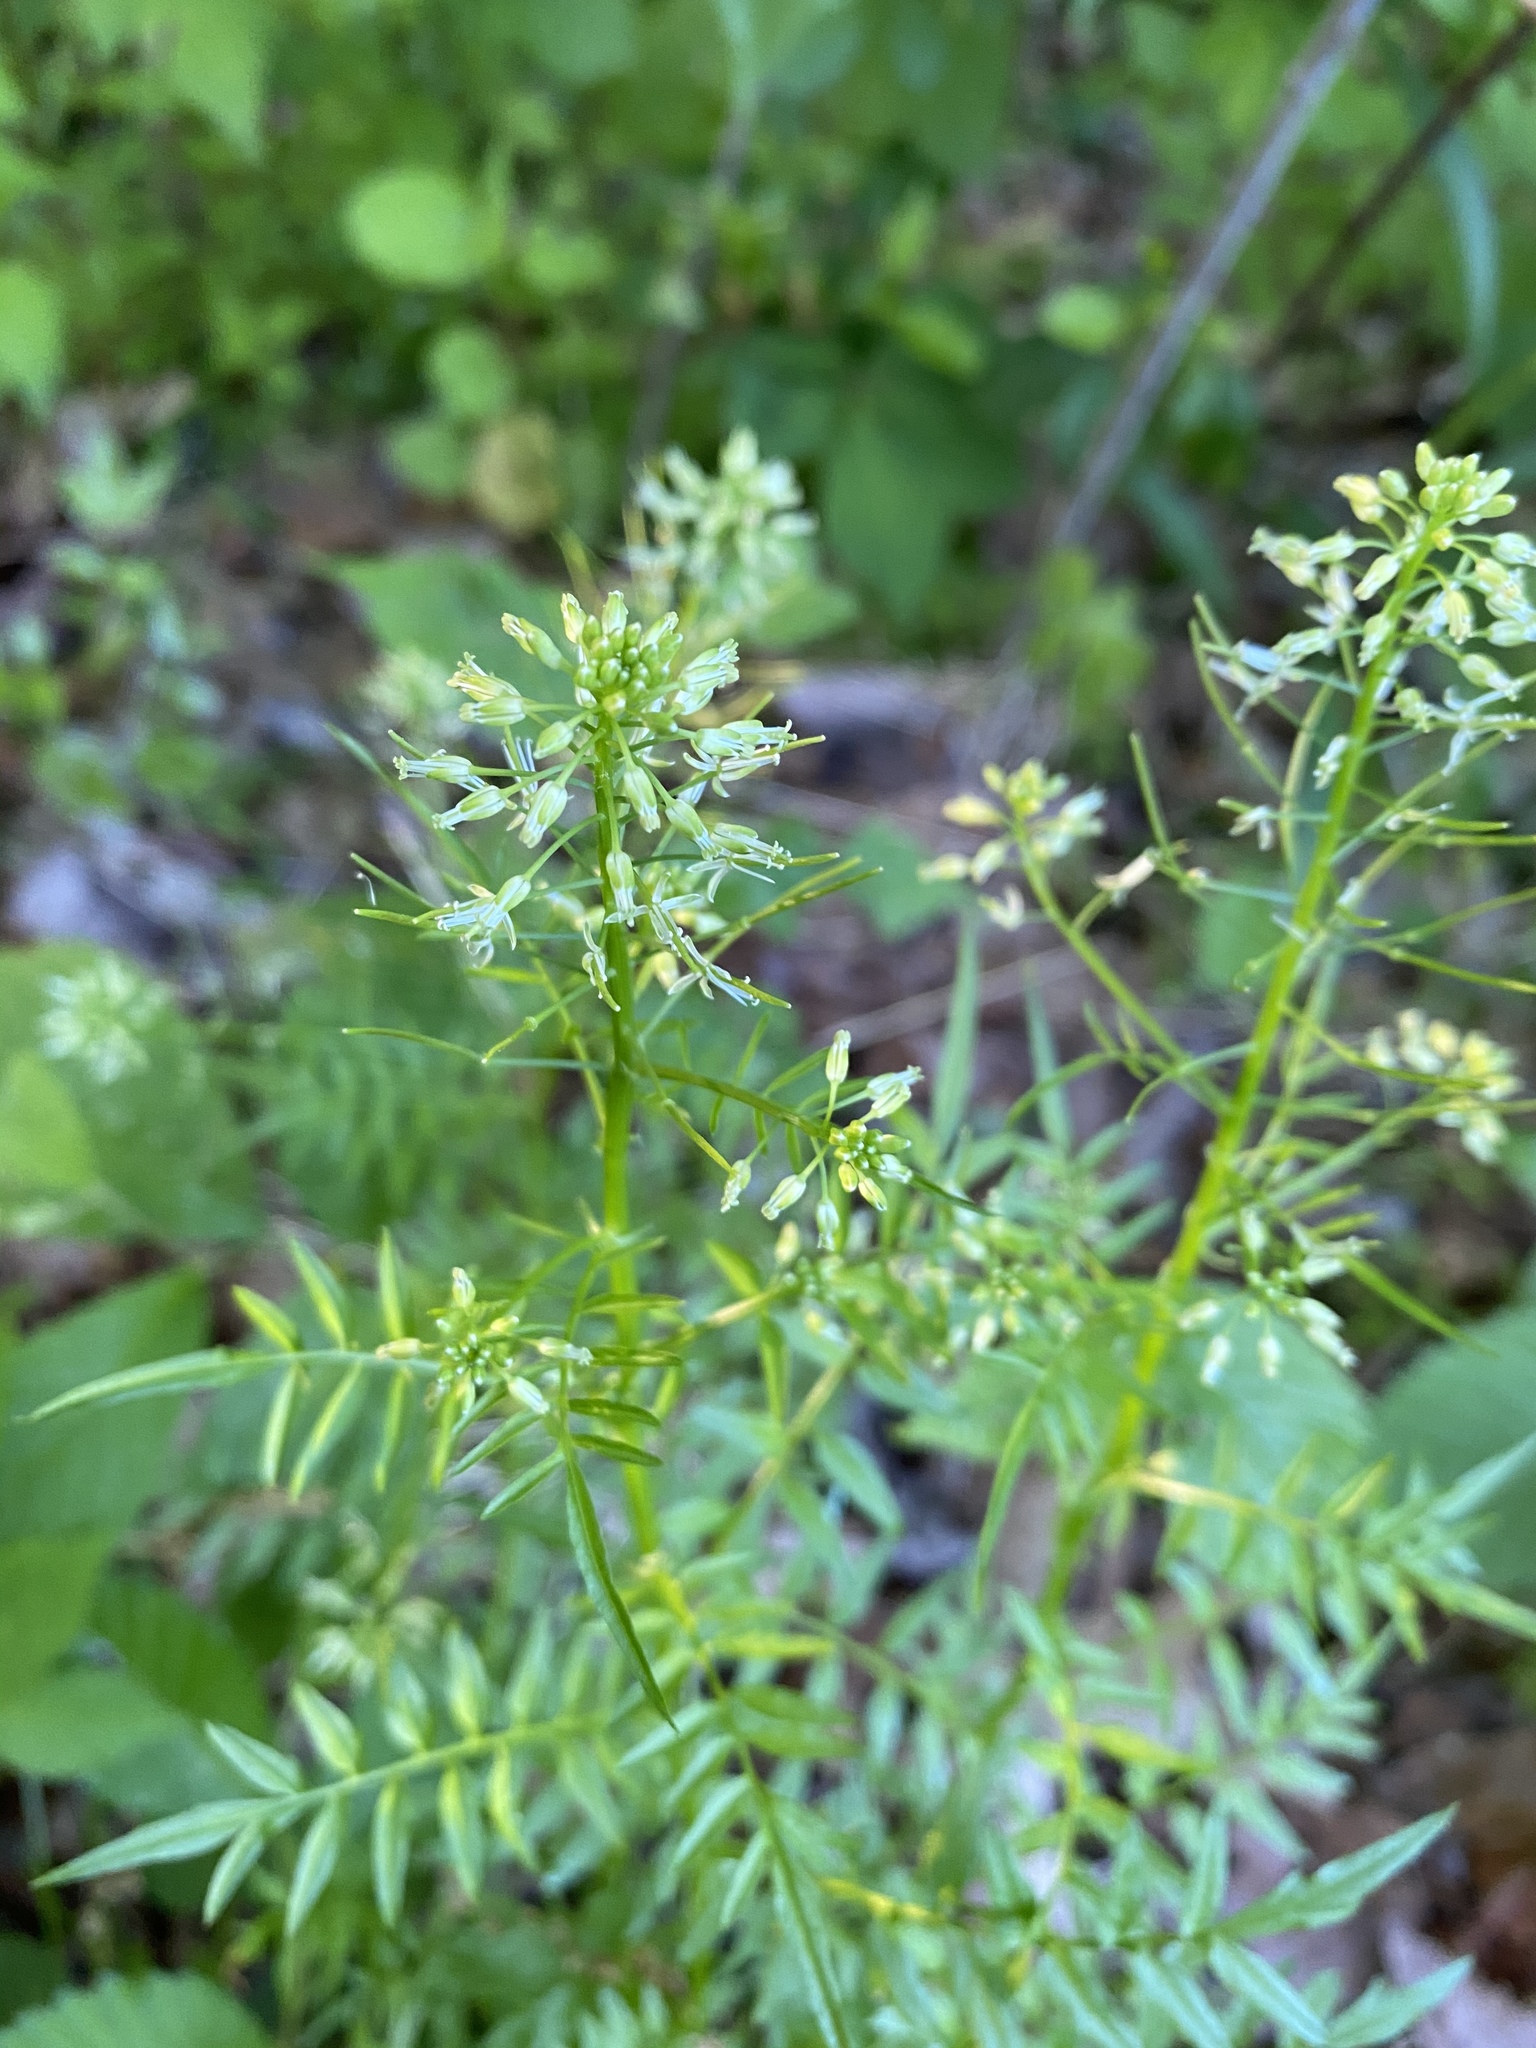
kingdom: Plantae
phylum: Tracheophyta
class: Magnoliopsida
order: Brassicales
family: Brassicaceae
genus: Cardamine
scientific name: Cardamine impatiens
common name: Narrow-leaved bitter-cress
